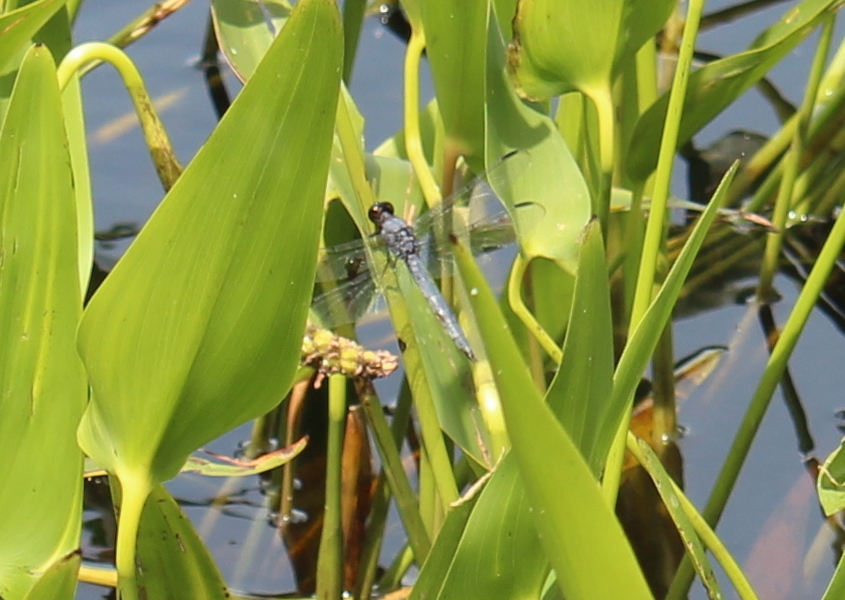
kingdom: Animalia
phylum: Arthropoda
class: Insecta
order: Odonata
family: Libellulidae
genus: Libellula
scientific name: Libellula incesta
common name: Slaty skimmer
